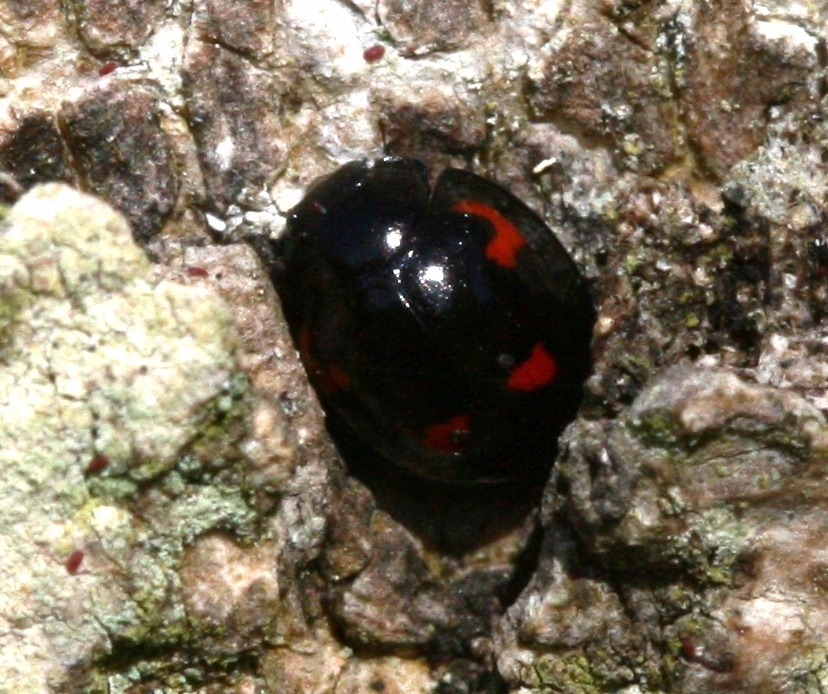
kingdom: Animalia
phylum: Arthropoda
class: Insecta
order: Coleoptera
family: Coccinellidae
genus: Brumus
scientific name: Brumus quadripustulatus
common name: Ladybird beetle
